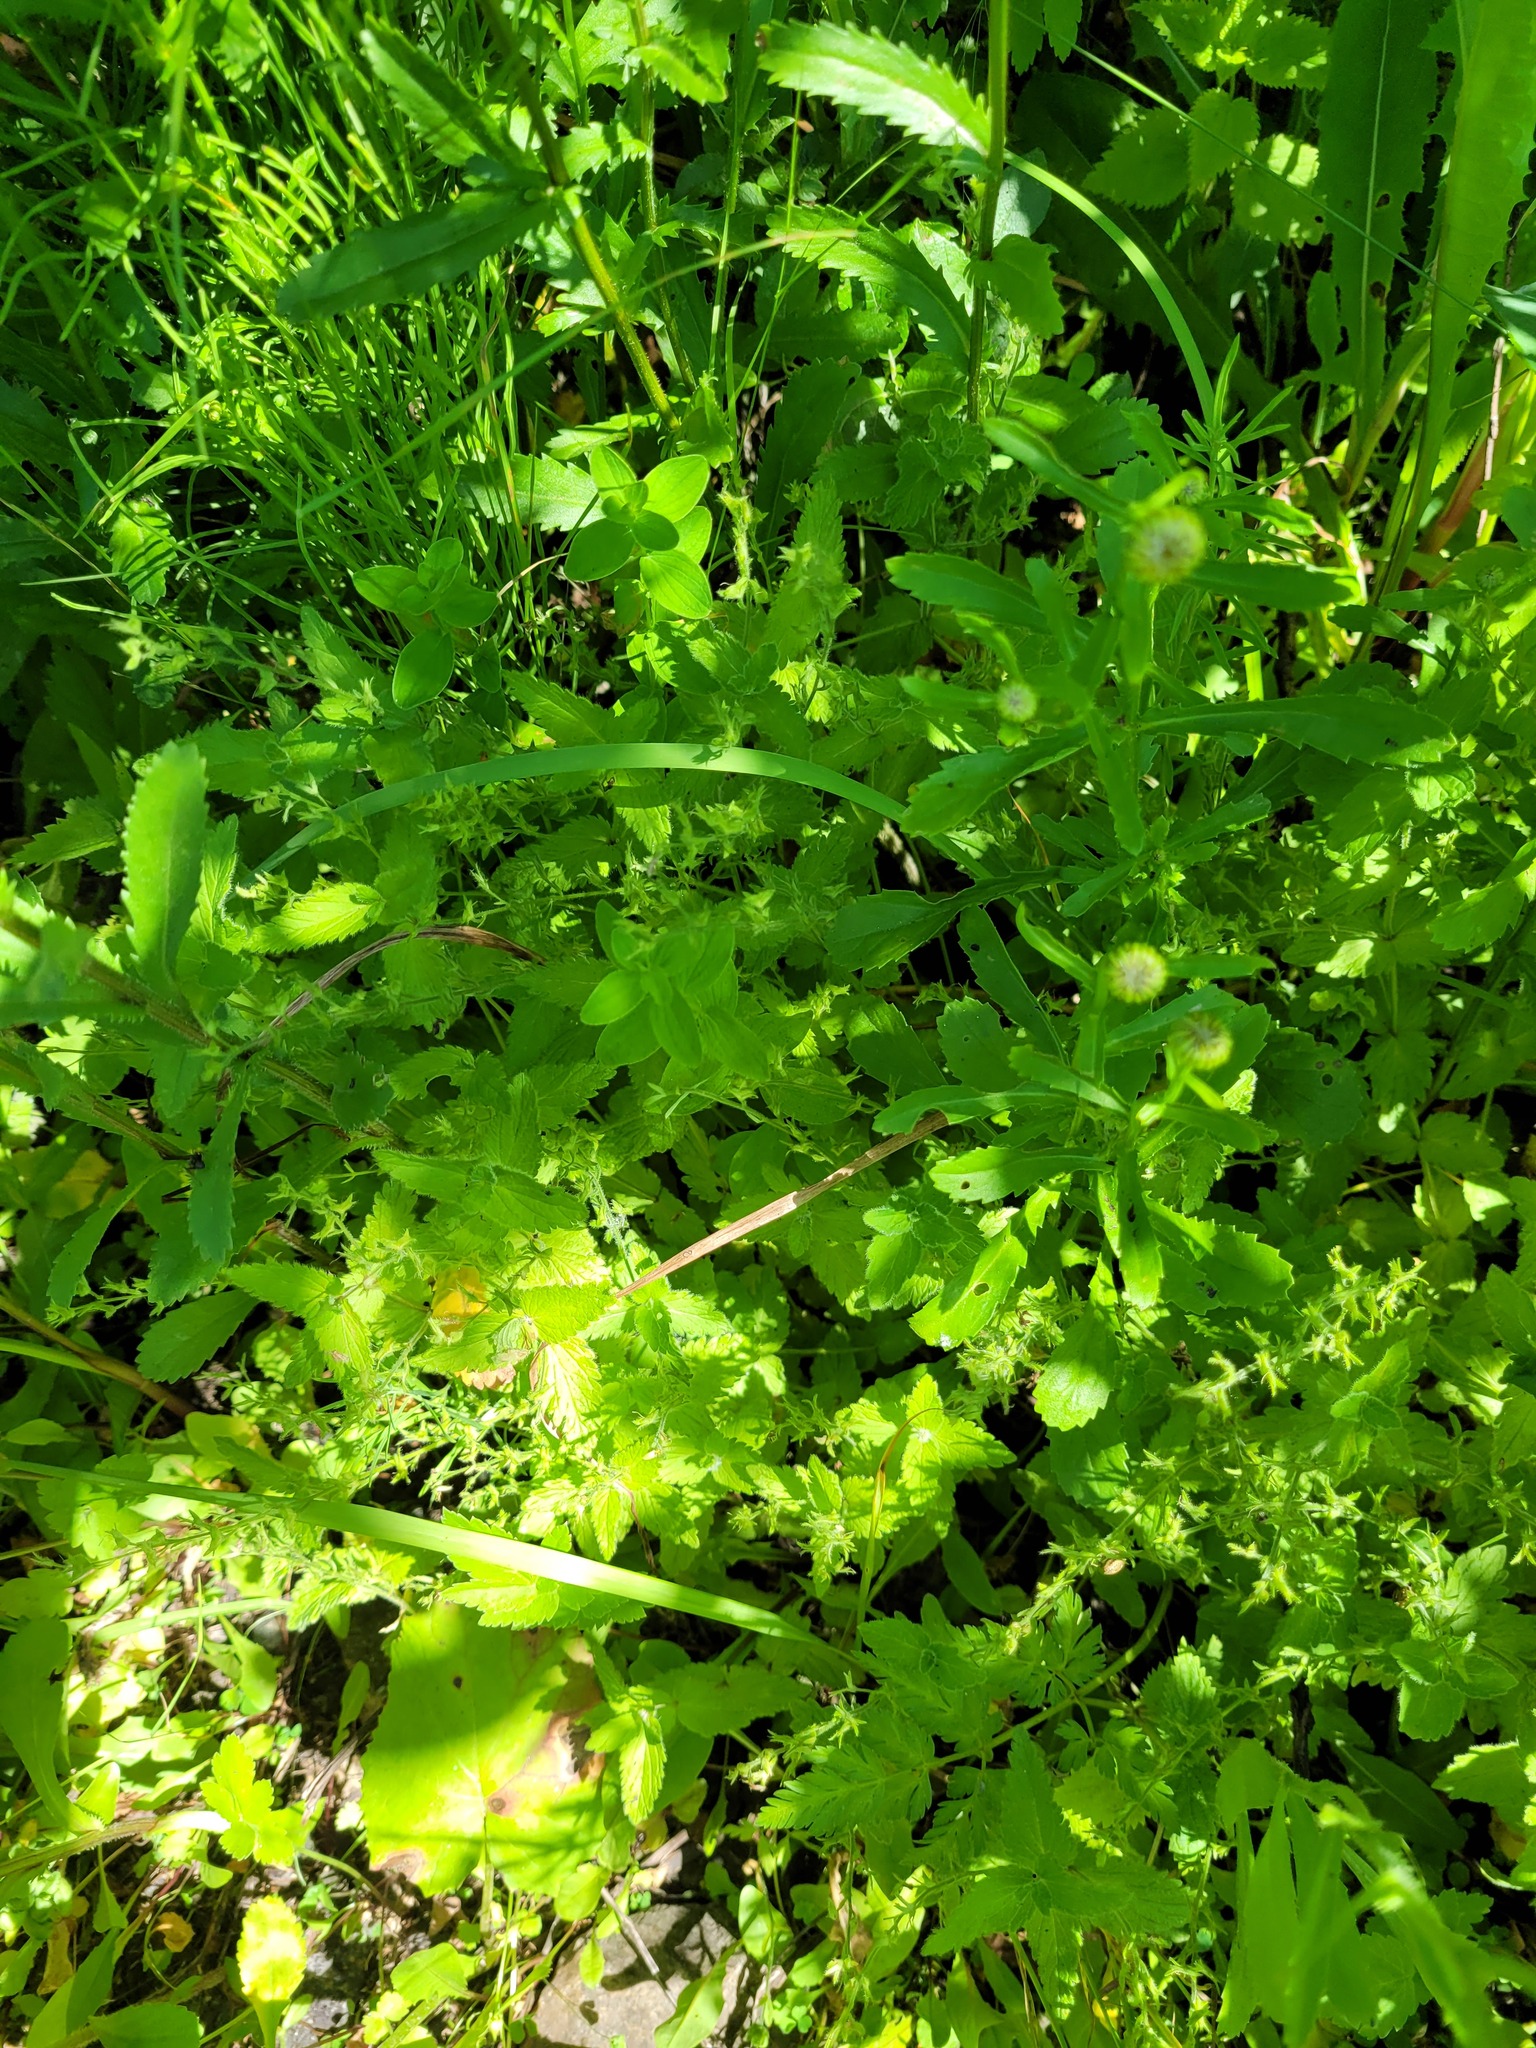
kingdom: Plantae
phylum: Tracheophyta
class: Magnoliopsida
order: Lamiales
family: Plantaginaceae
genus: Veronica
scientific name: Veronica chamaedrys
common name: Germander speedwell
